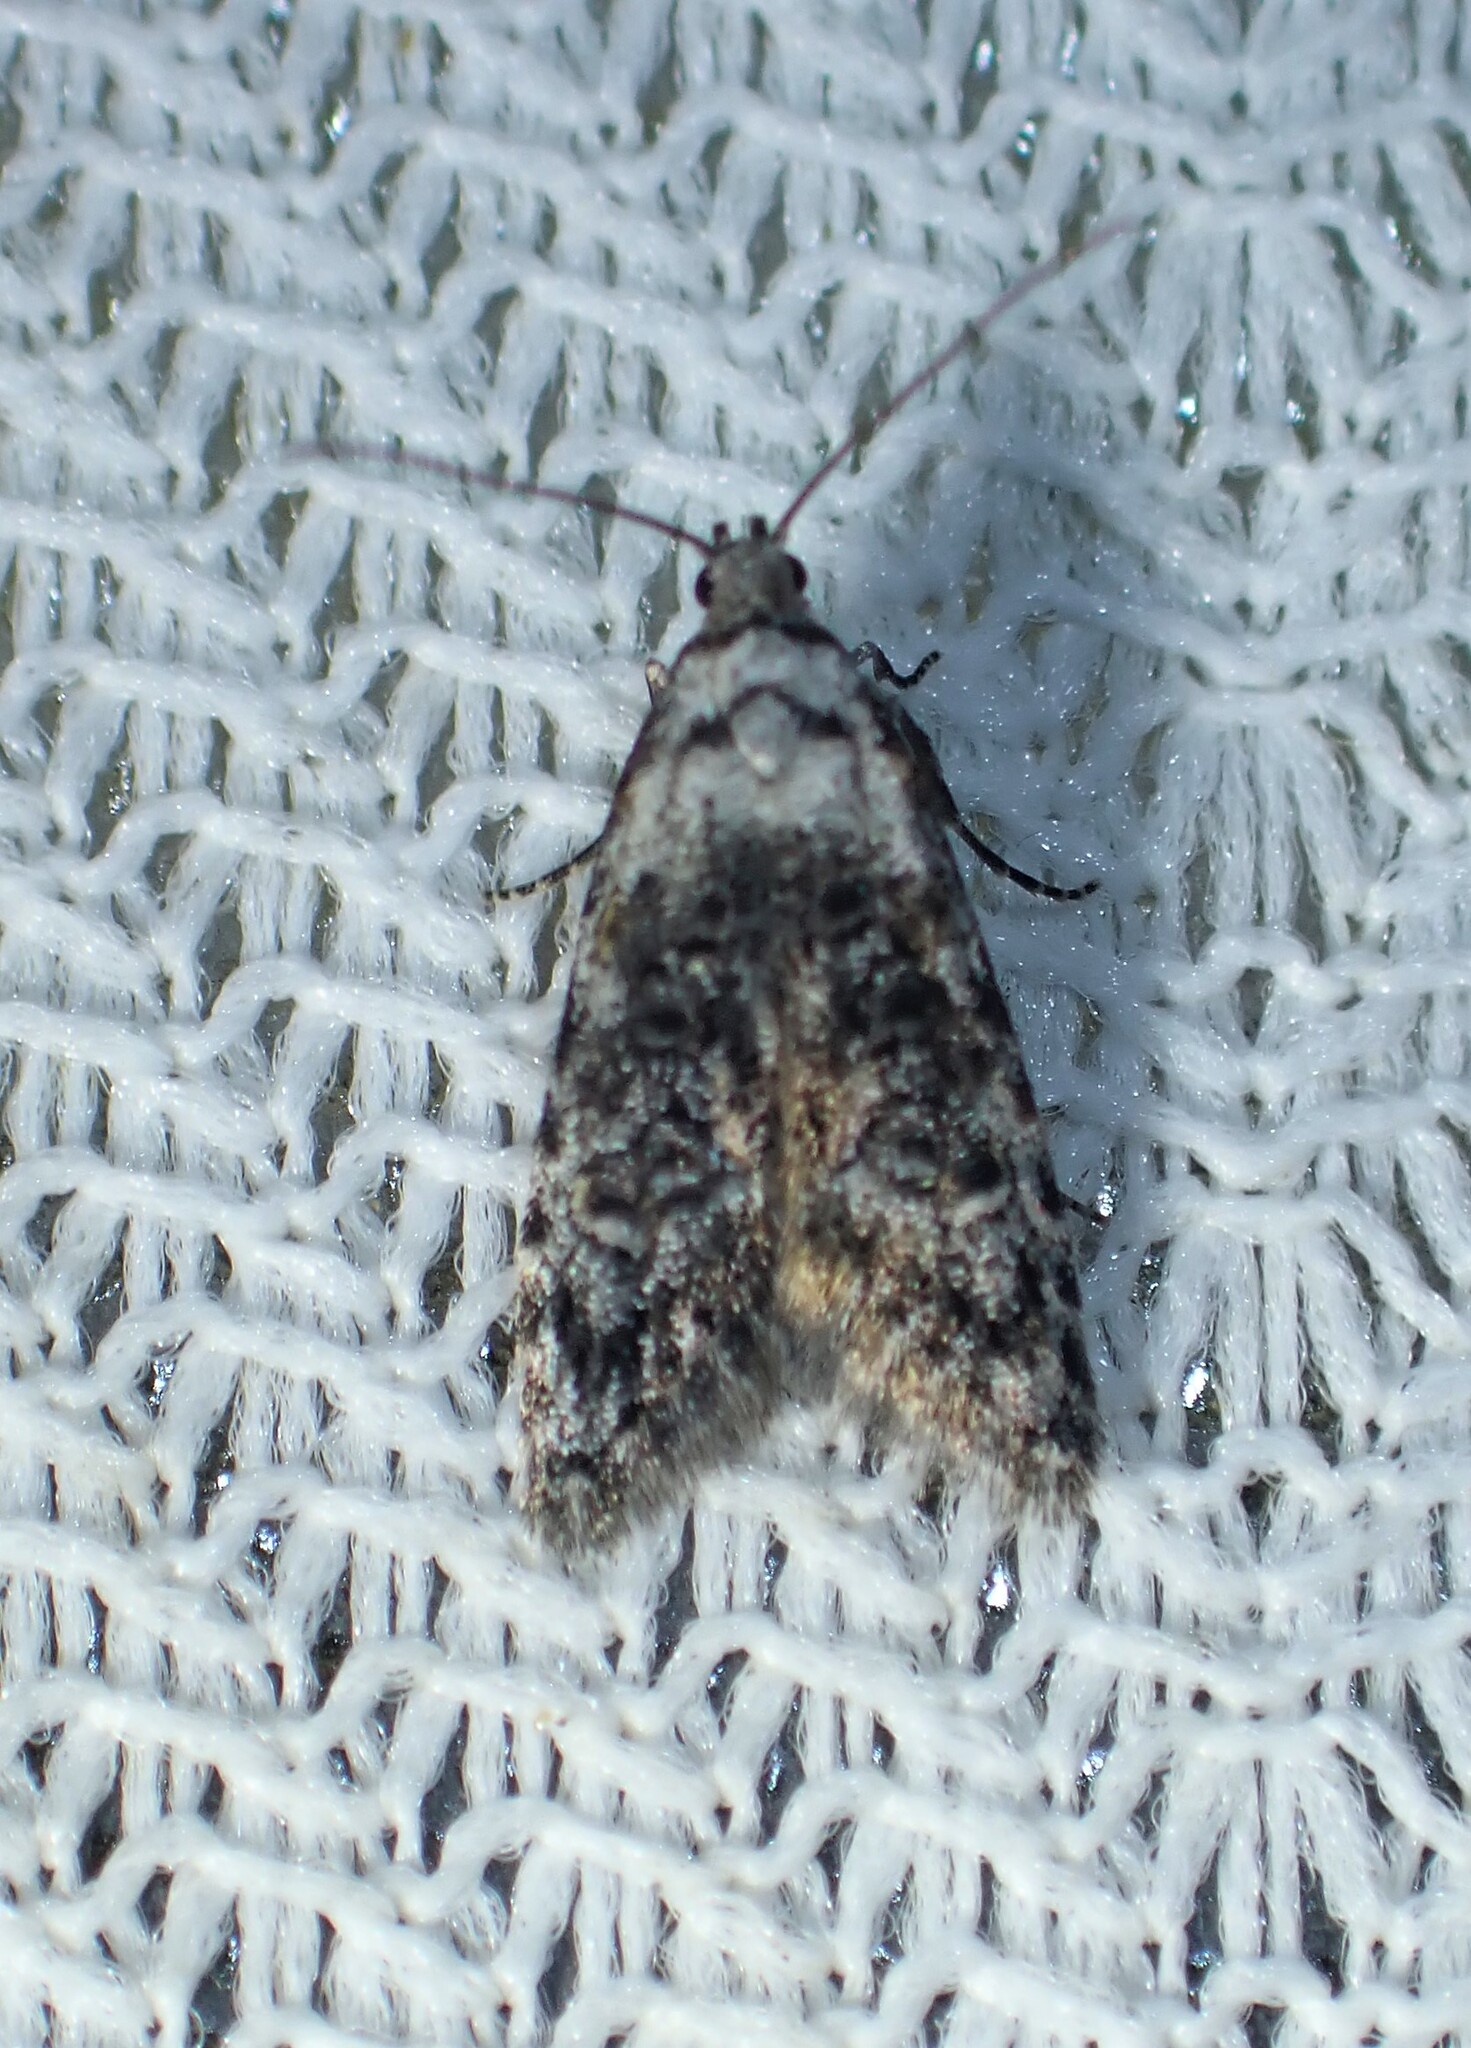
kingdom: Animalia
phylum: Arthropoda
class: Insecta
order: Lepidoptera
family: Carposinidae
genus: Bondia
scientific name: Bondia crescentella
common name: Crescent-marked bondia
